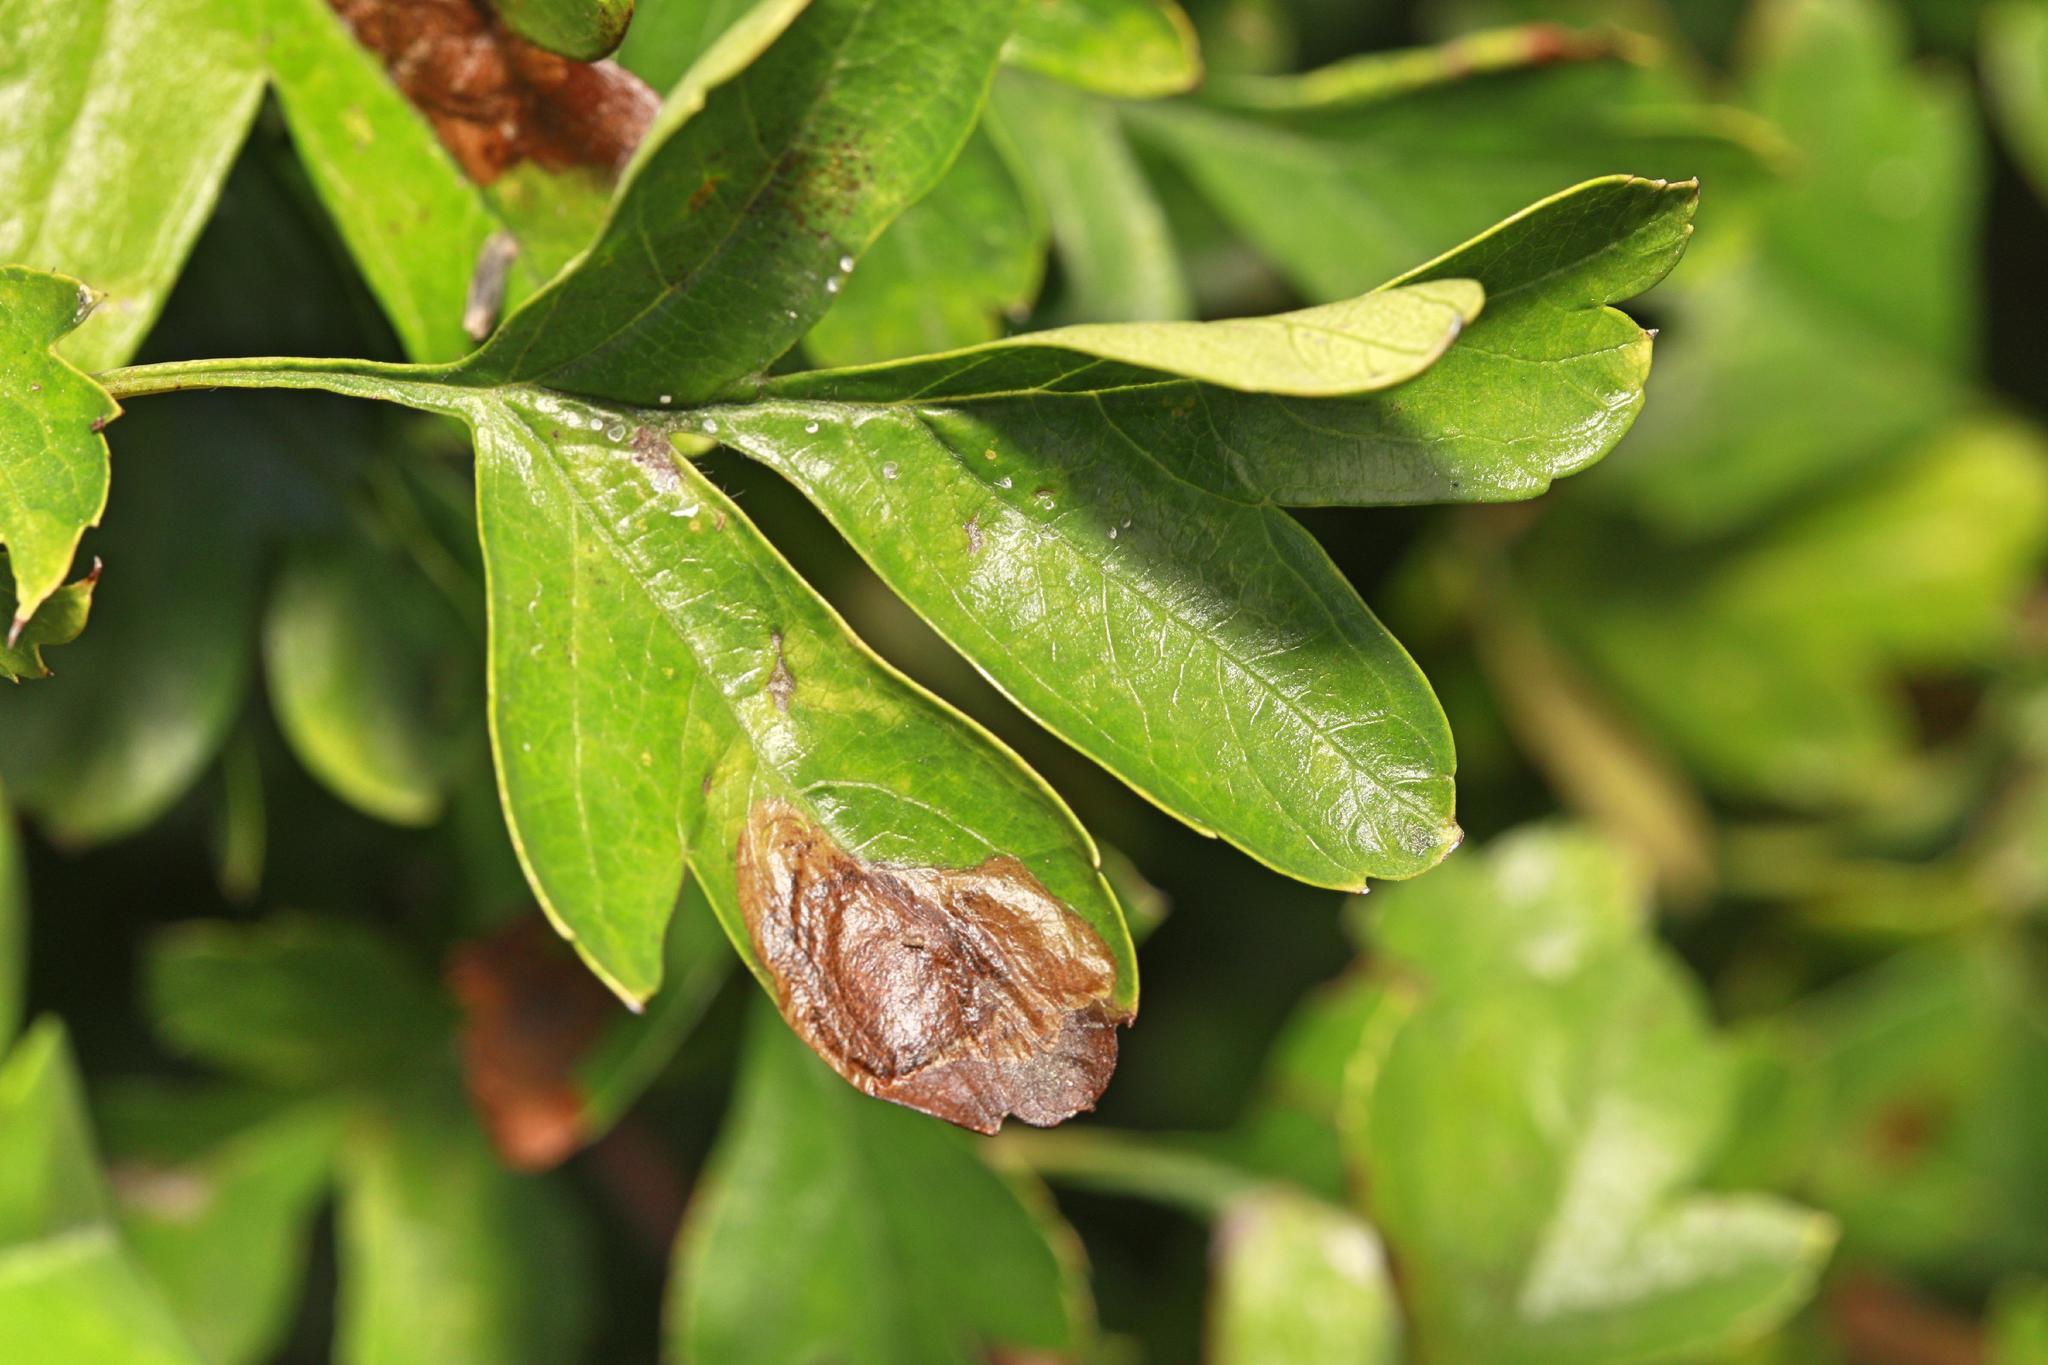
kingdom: Animalia
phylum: Arthropoda
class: Insecta
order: Lepidoptera
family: Lyonetiidae
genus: Leucoptera
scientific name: Leucoptera malifoliella
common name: Pear leaf blister moth
